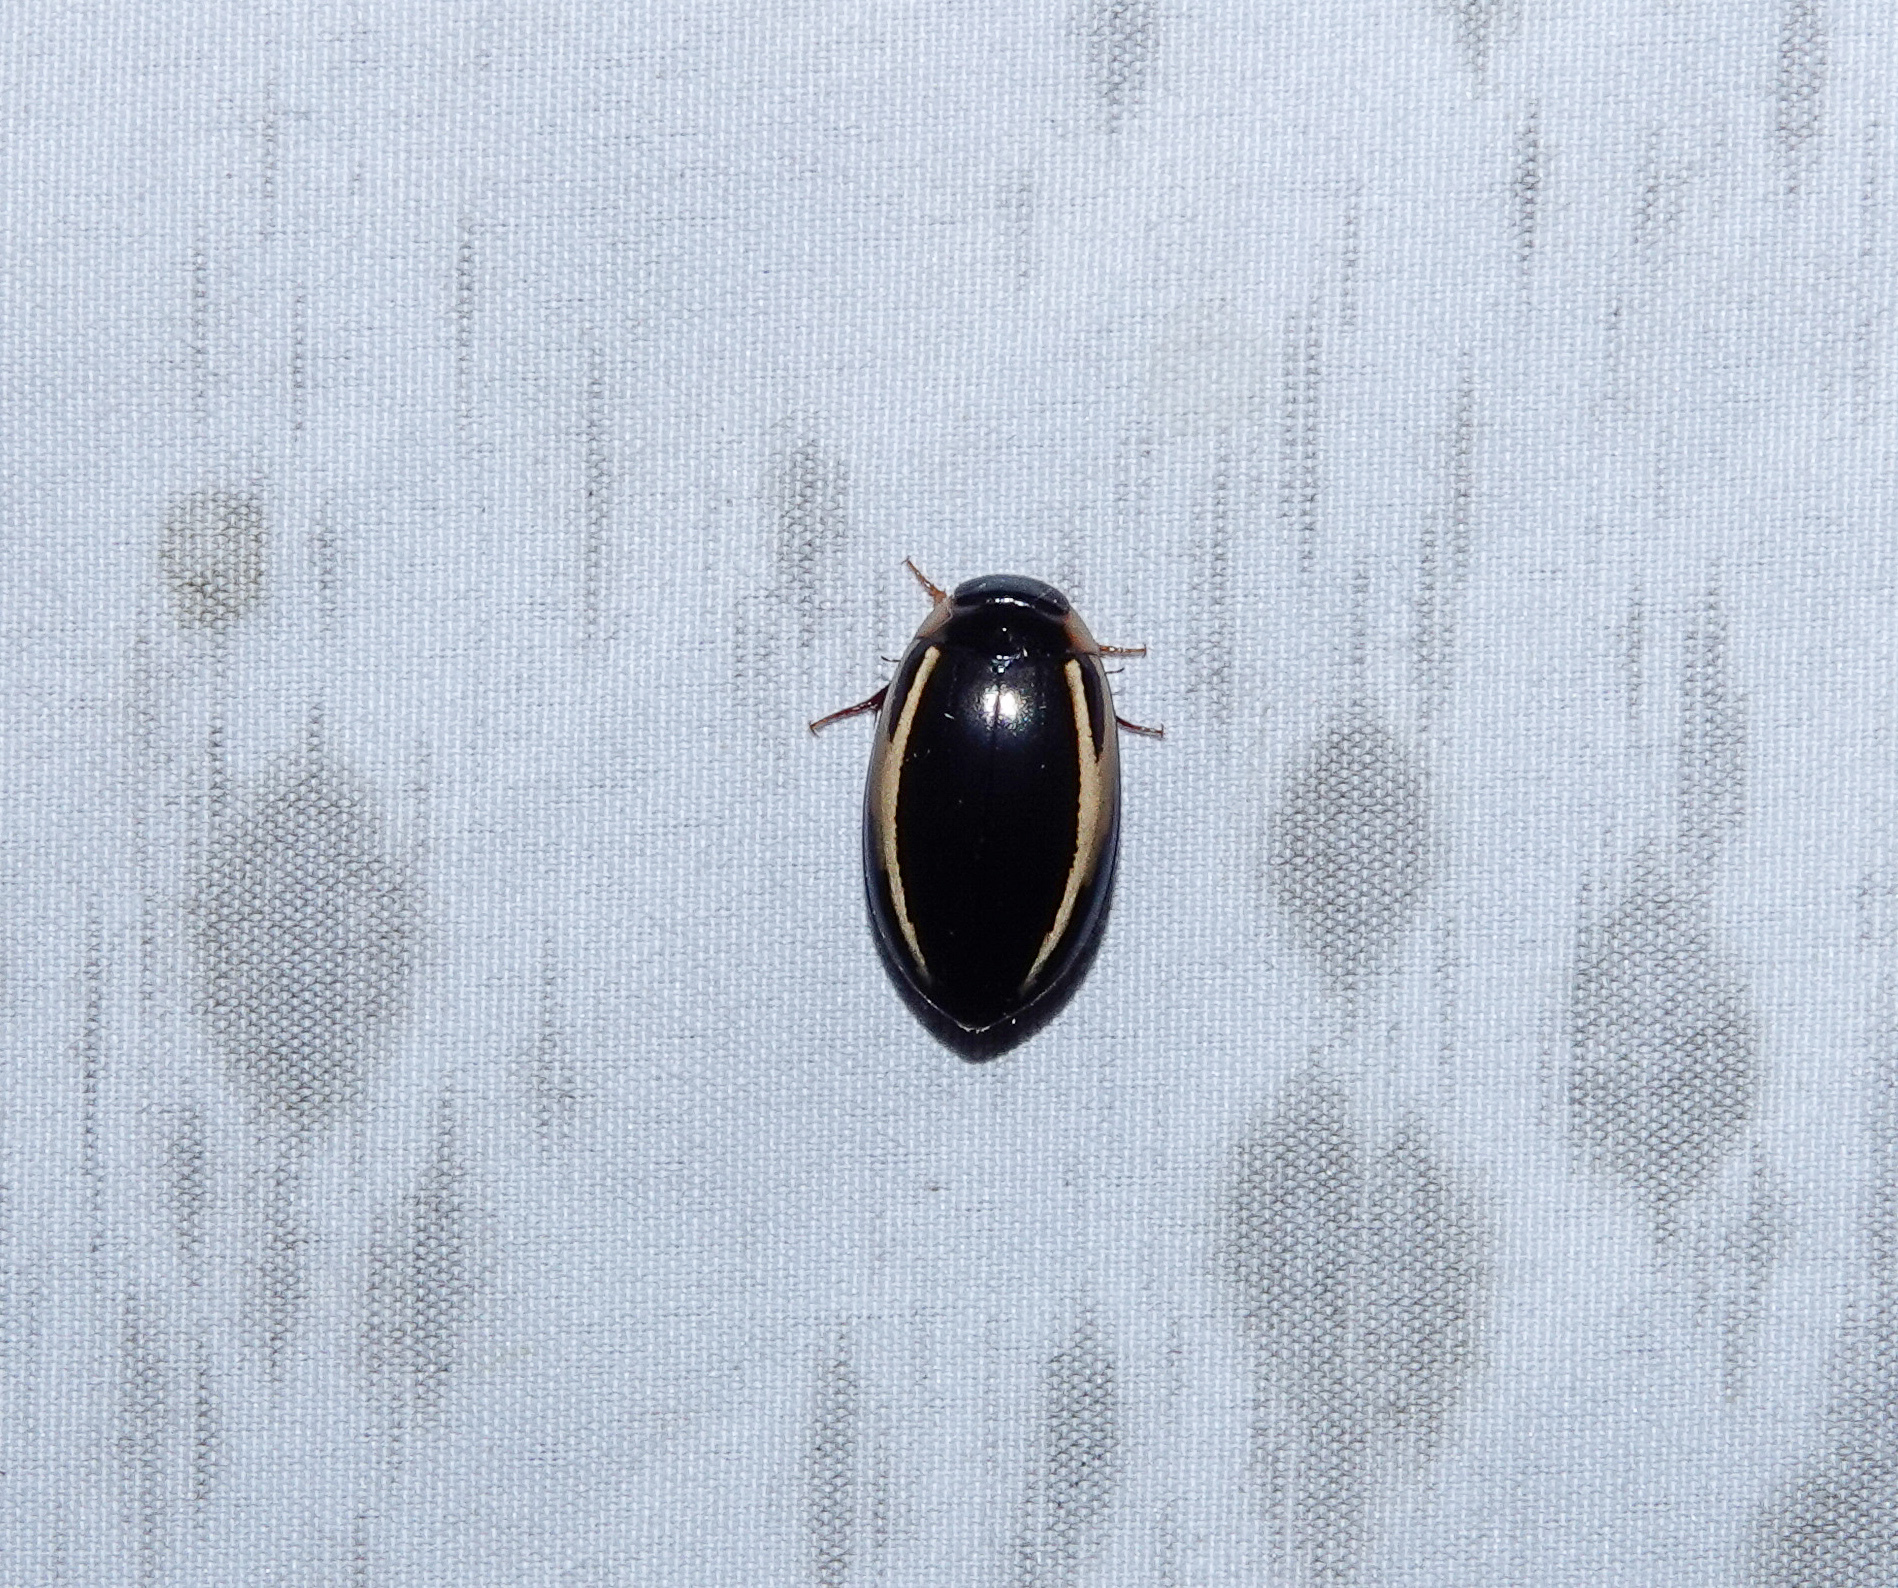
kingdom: Animalia
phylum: Arthropoda
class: Insecta
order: Coleoptera
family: Dytiscidae
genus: Hydaticus
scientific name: Hydaticus vittatus
